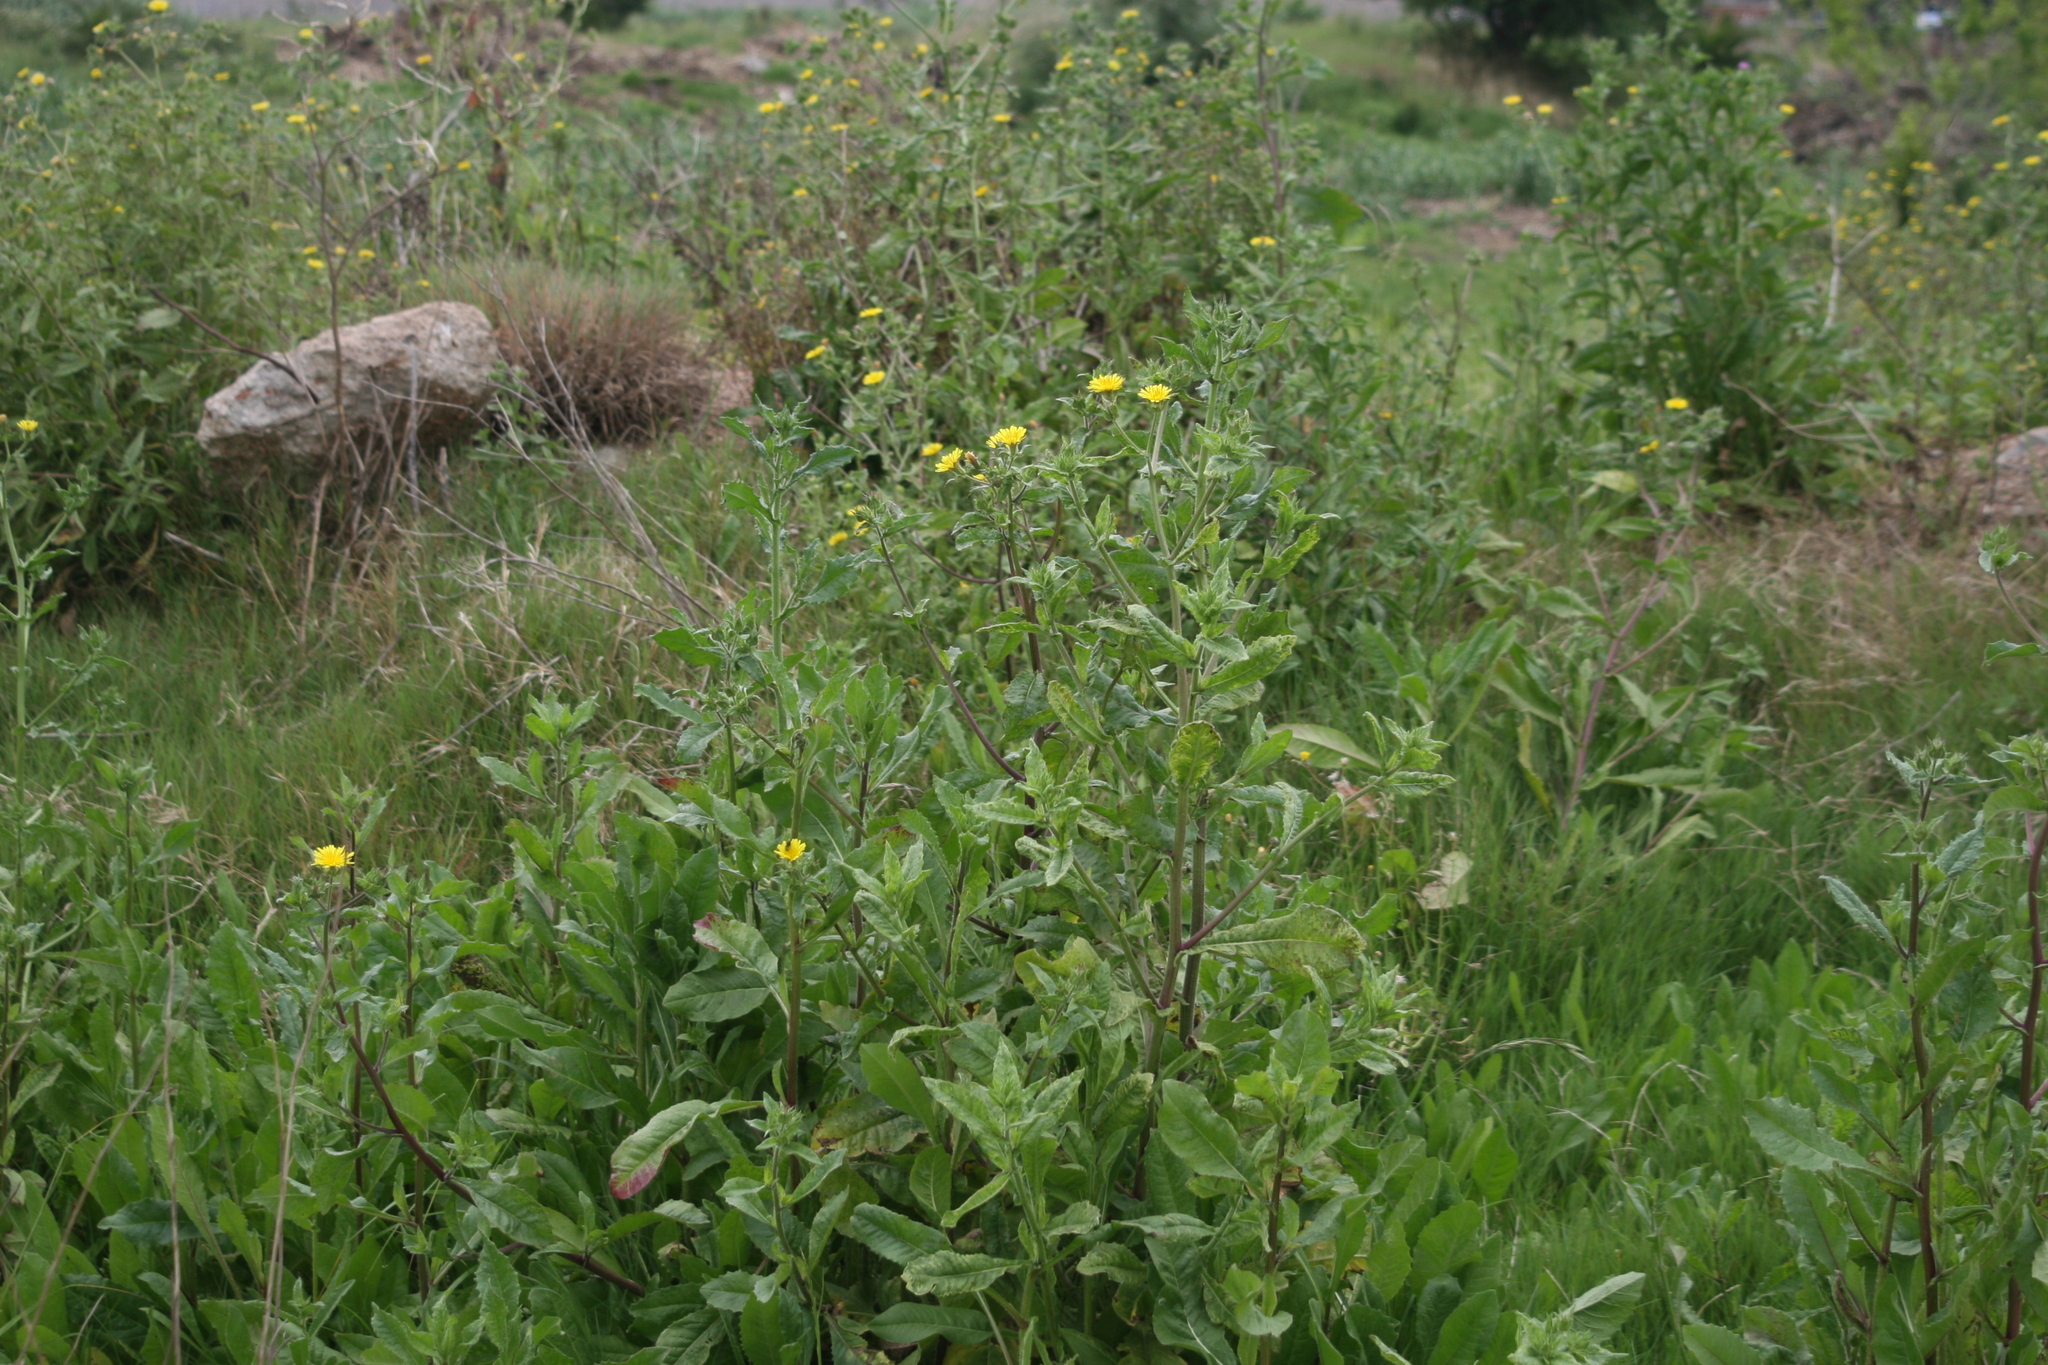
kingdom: Plantae
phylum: Tracheophyta
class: Magnoliopsida
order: Asterales
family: Asteraceae
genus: Helminthotheca
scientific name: Helminthotheca echioides
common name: Ox-tongue
